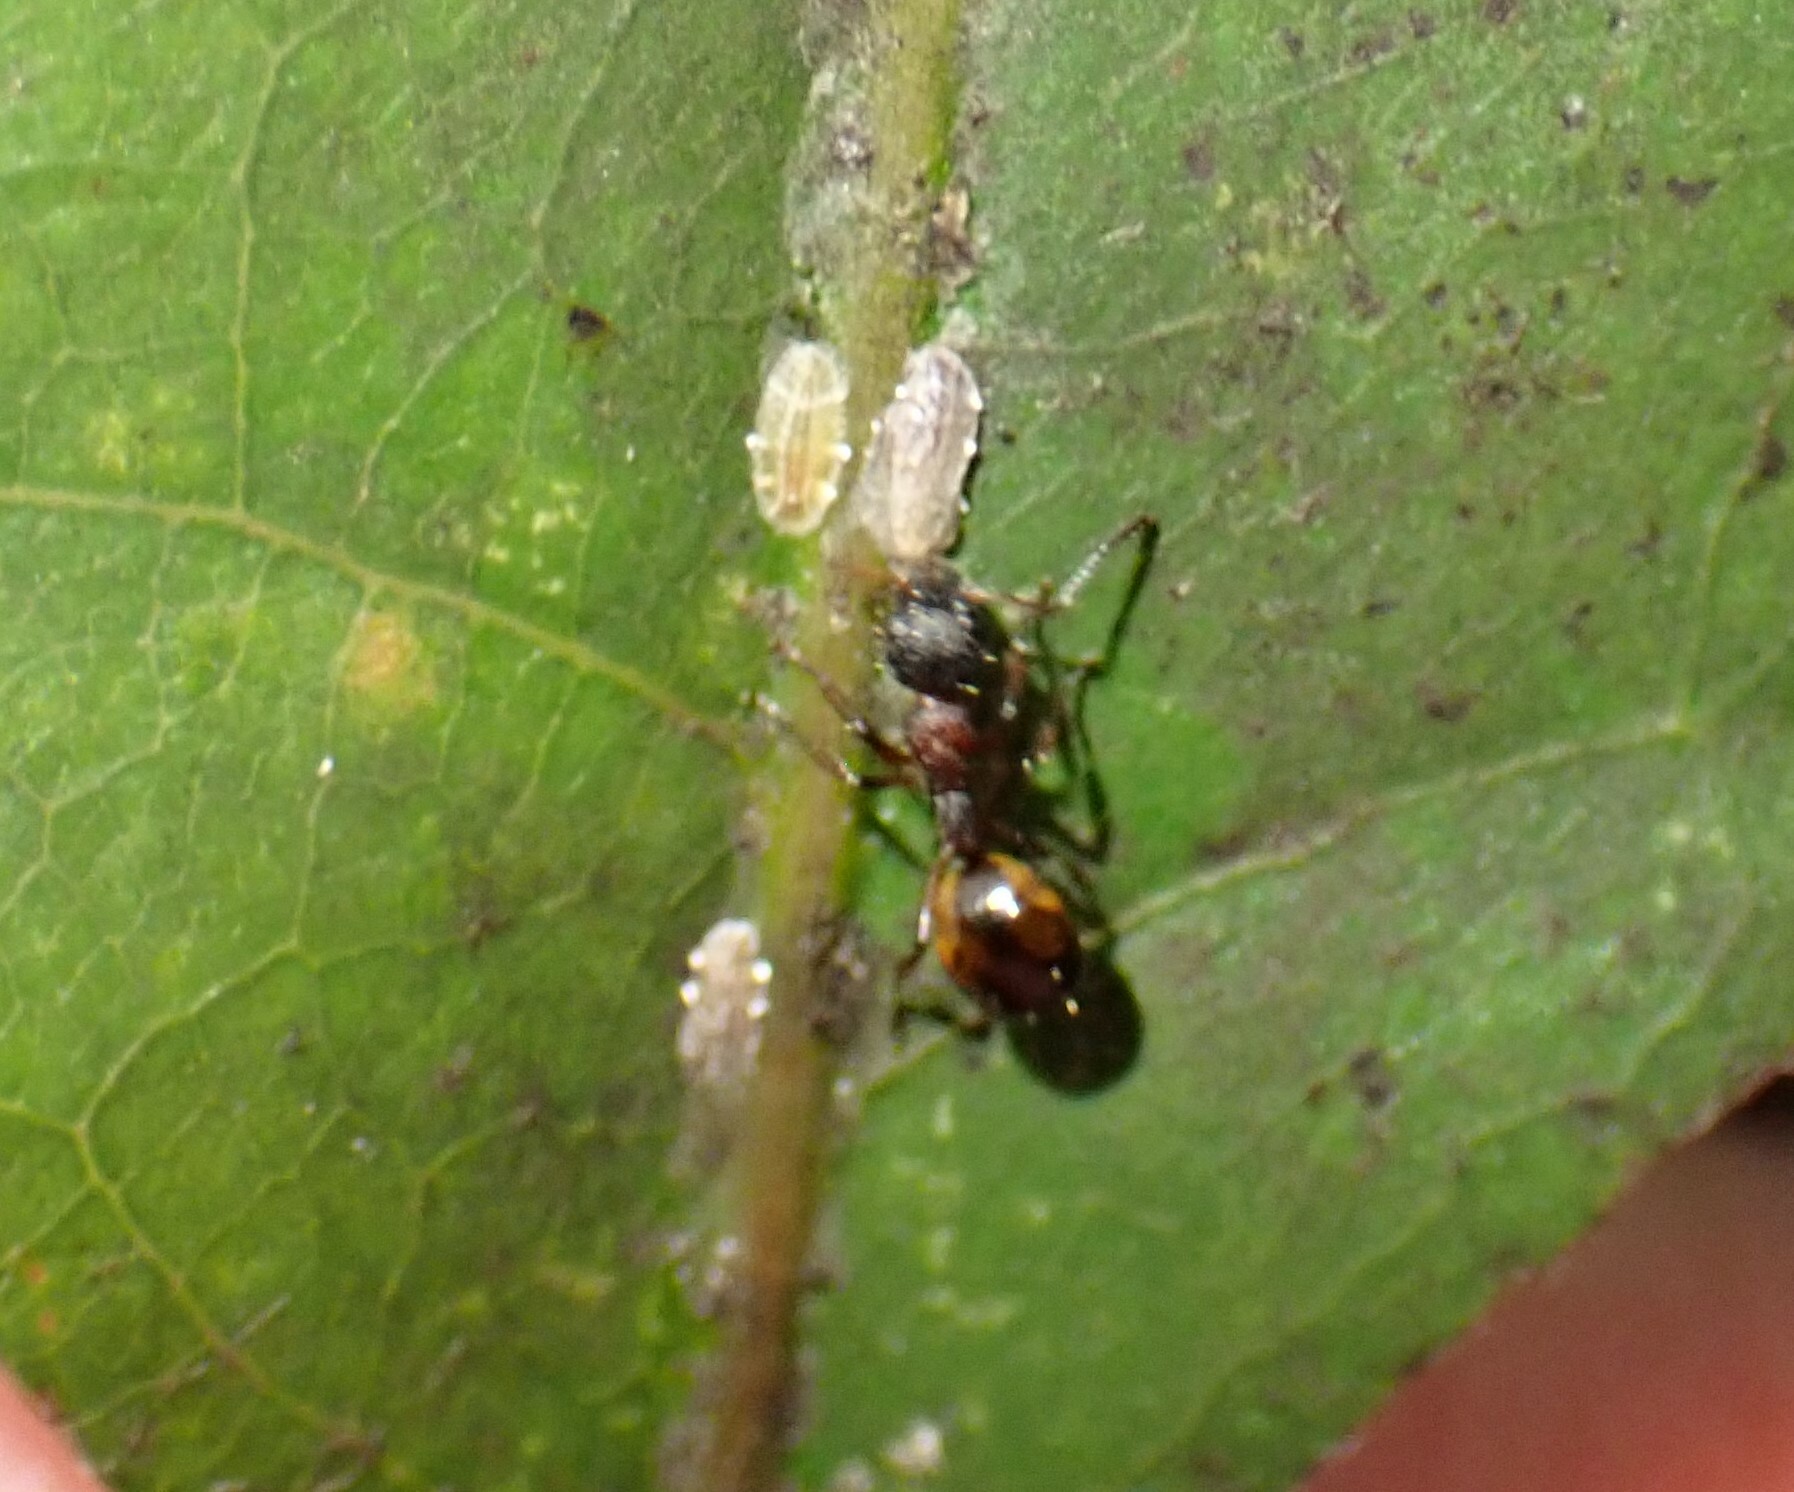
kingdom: Animalia
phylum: Arthropoda
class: Insecta
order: Hymenoptera
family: Formicidae
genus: Dolichoderus
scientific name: Dolichoderus plagiatus
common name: Mottled dolichoderus
